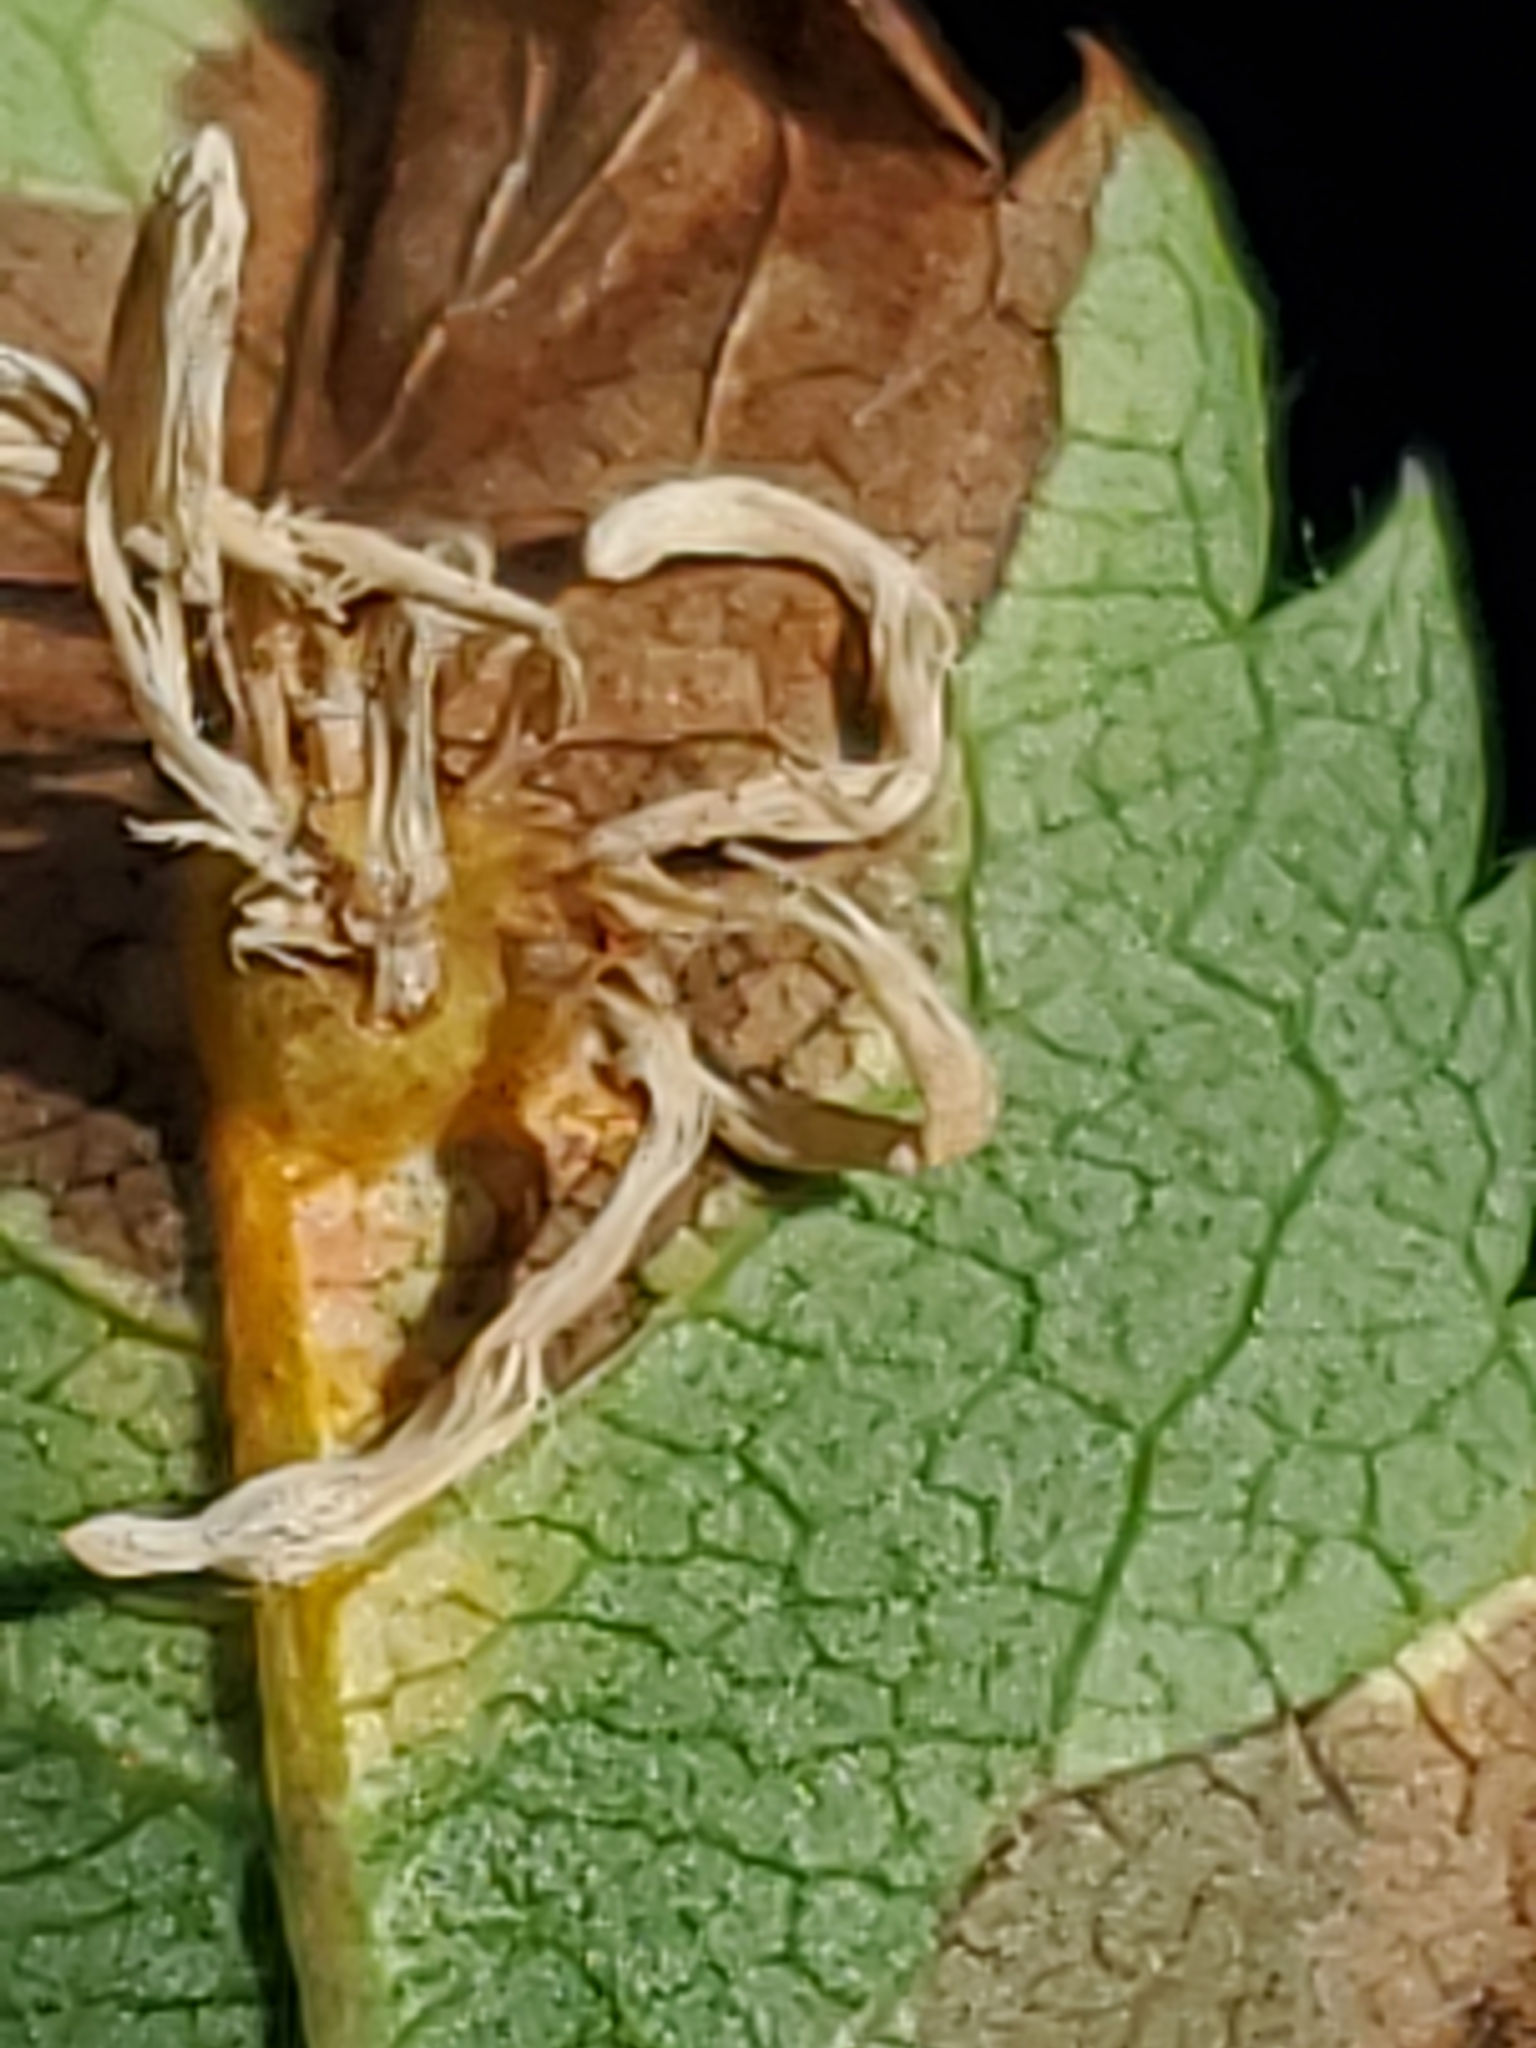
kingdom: Fungi
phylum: Basidiomycota
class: Pucciniomycetes
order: Pucciniales
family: Gymnosporangiaceae
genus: Gymnosporangium
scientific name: Gymnosporangium cornutum
